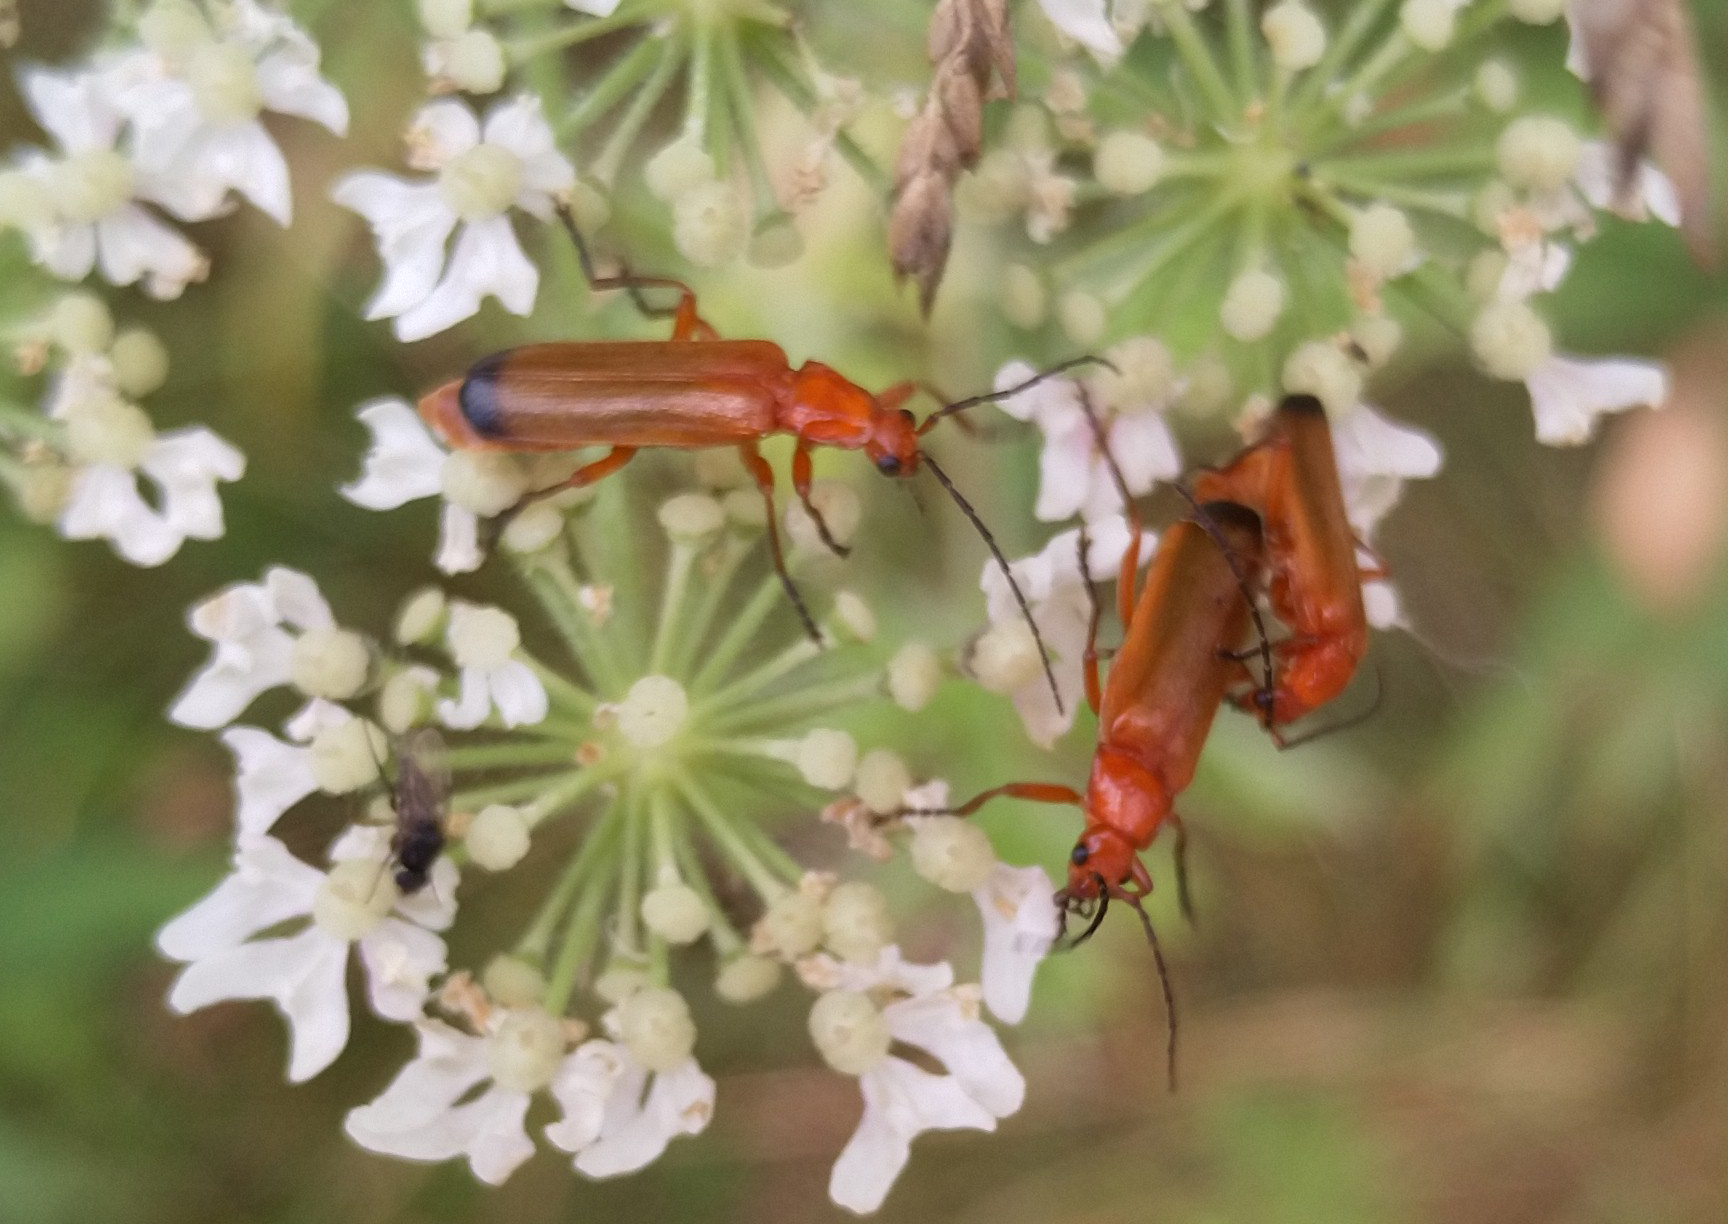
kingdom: Animalia
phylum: Arthropoda
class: Insecta
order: Coleoptera
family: Cantharidae
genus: Rhagonycha
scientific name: Rhagonycha fulva
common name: Common red soldier beetle
